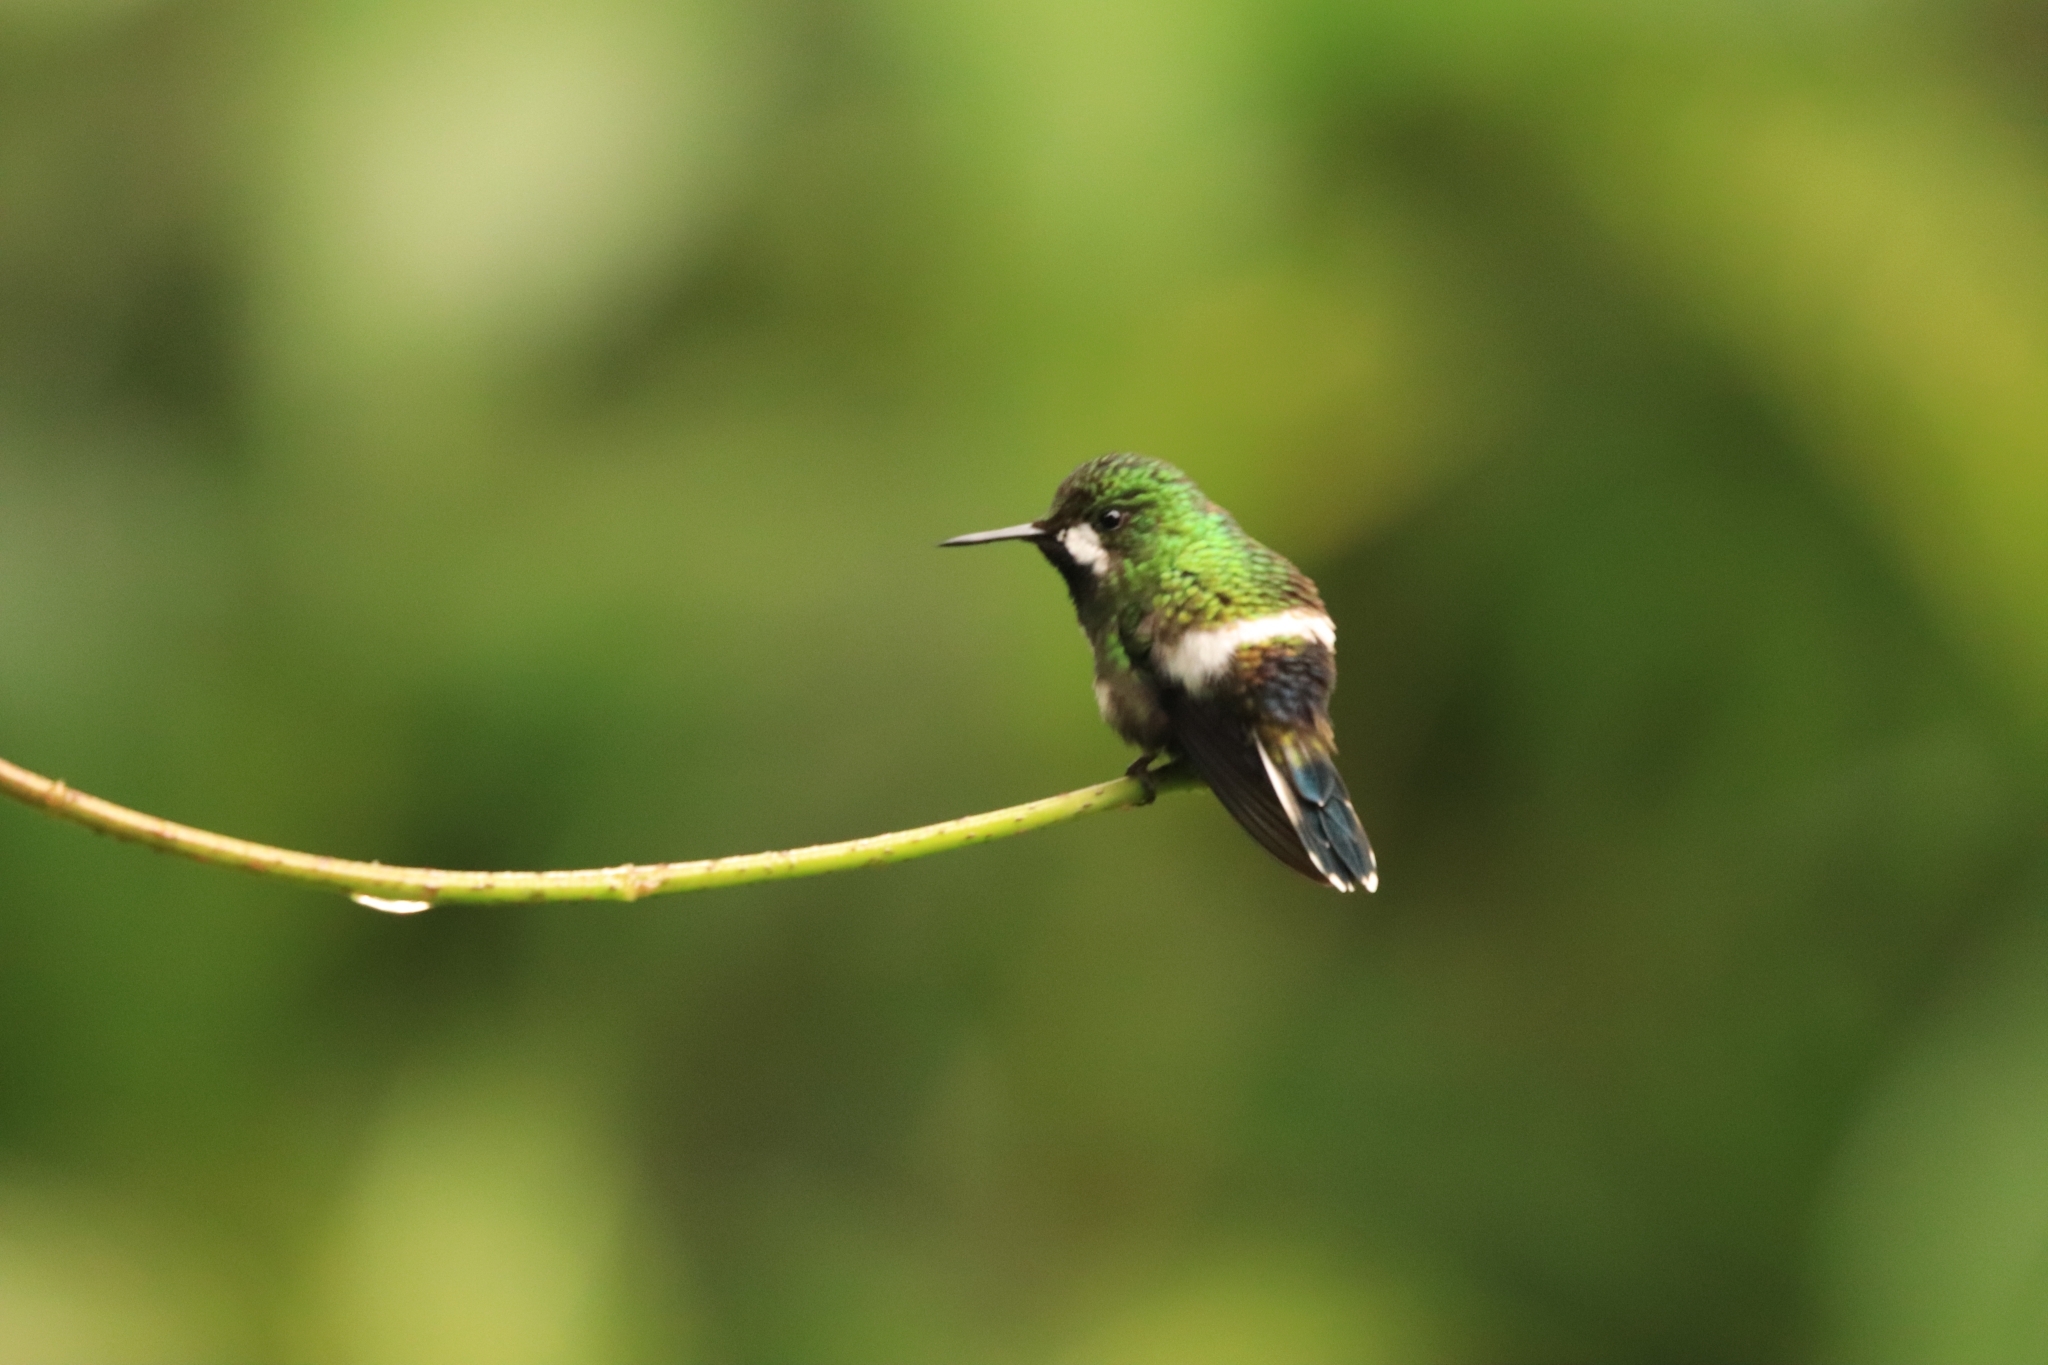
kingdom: Animalia
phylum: Chordata
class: Aves
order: Apodiformes
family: Trochilidae
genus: Discosura
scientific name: Discosura conversii
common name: Green thorntail
